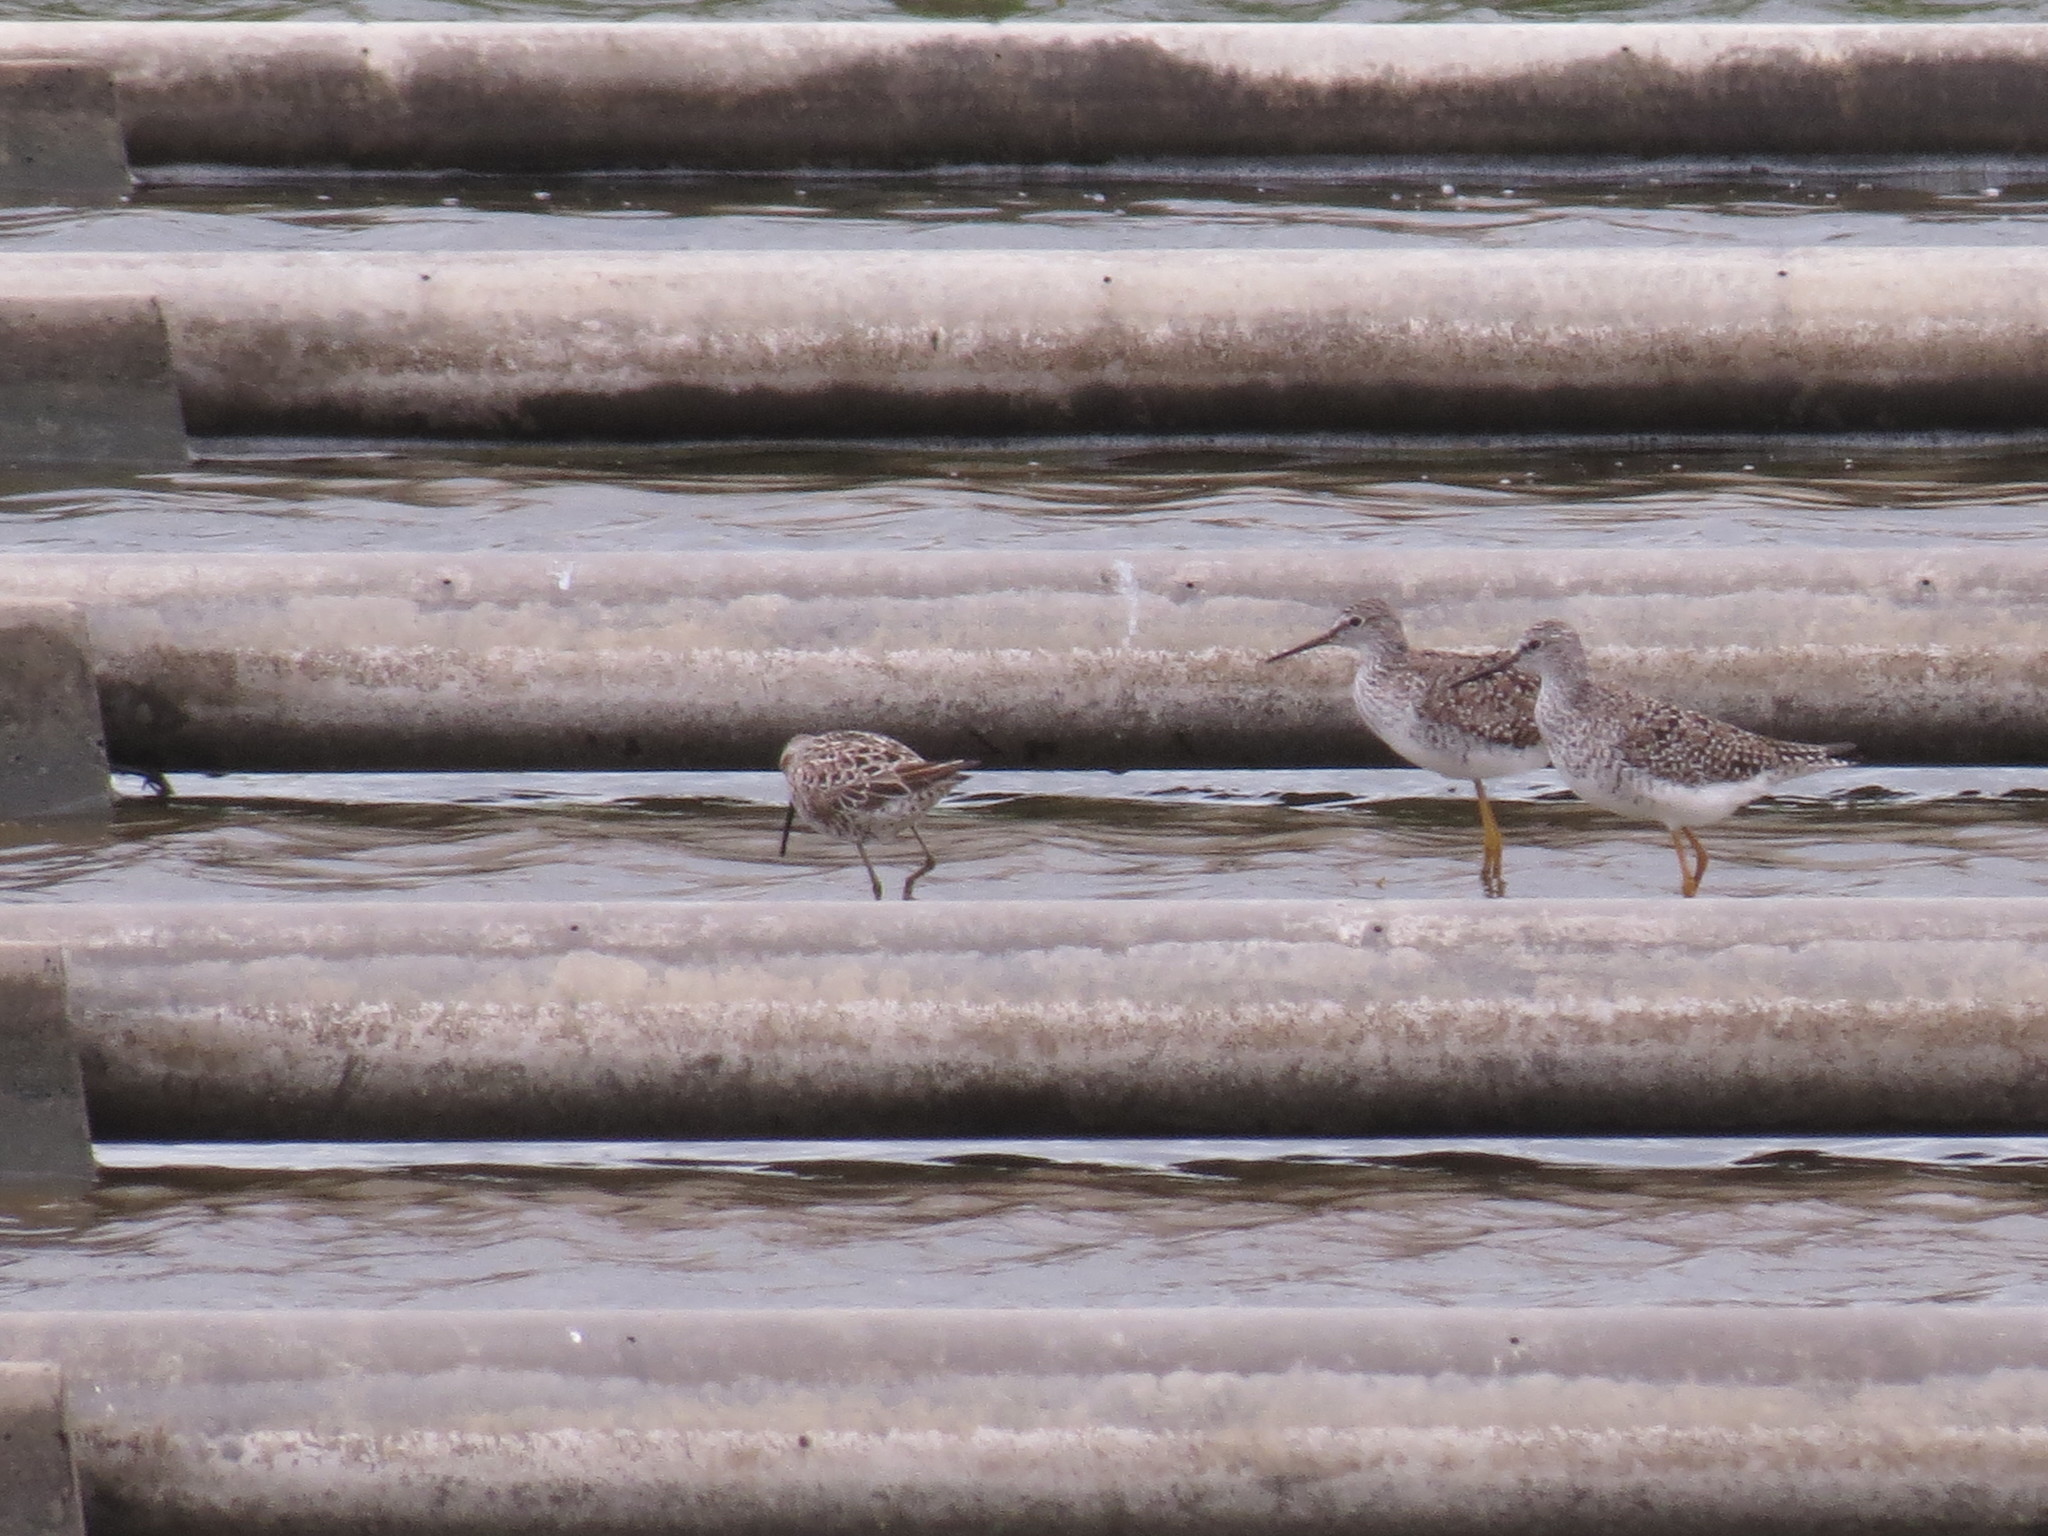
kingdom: Animalia
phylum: Chordata
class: Aves
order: Charadriiformes
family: Scolopacidae
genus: Tringa
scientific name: Tringa flavipes
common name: Lesser yellowlegs
